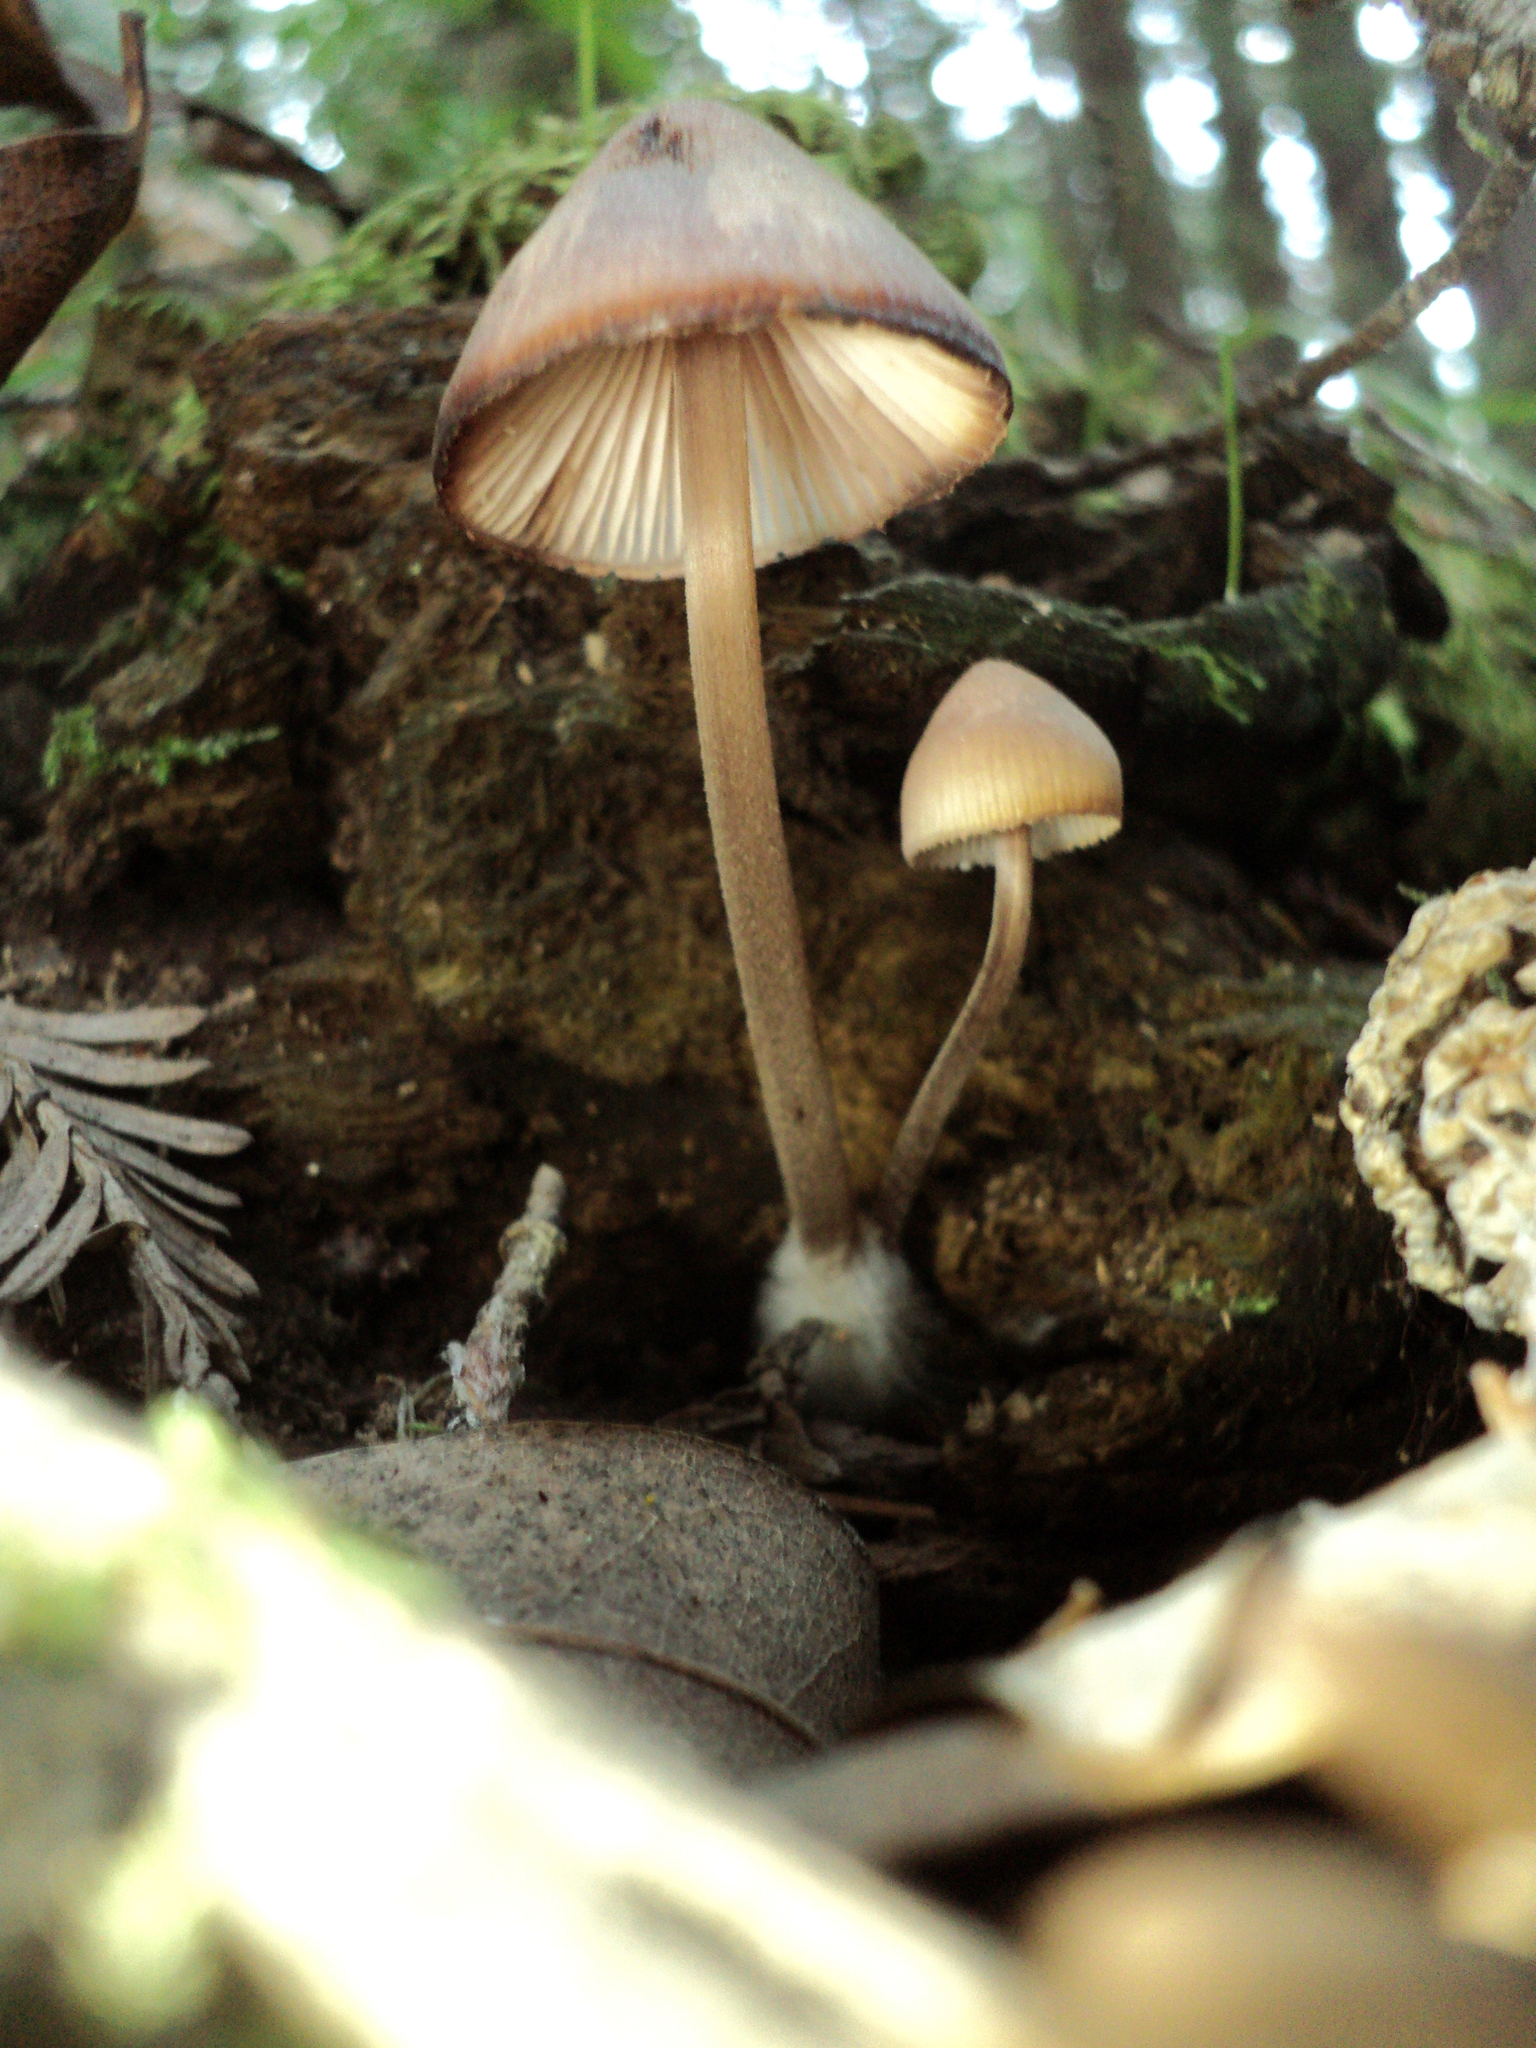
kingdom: Fungi
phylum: Basidiomycota
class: Agaricomycetes
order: Agaricales
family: Mycenaceae
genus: Mycena
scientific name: Mycena haematopus
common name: Burgundydrop bonnet
